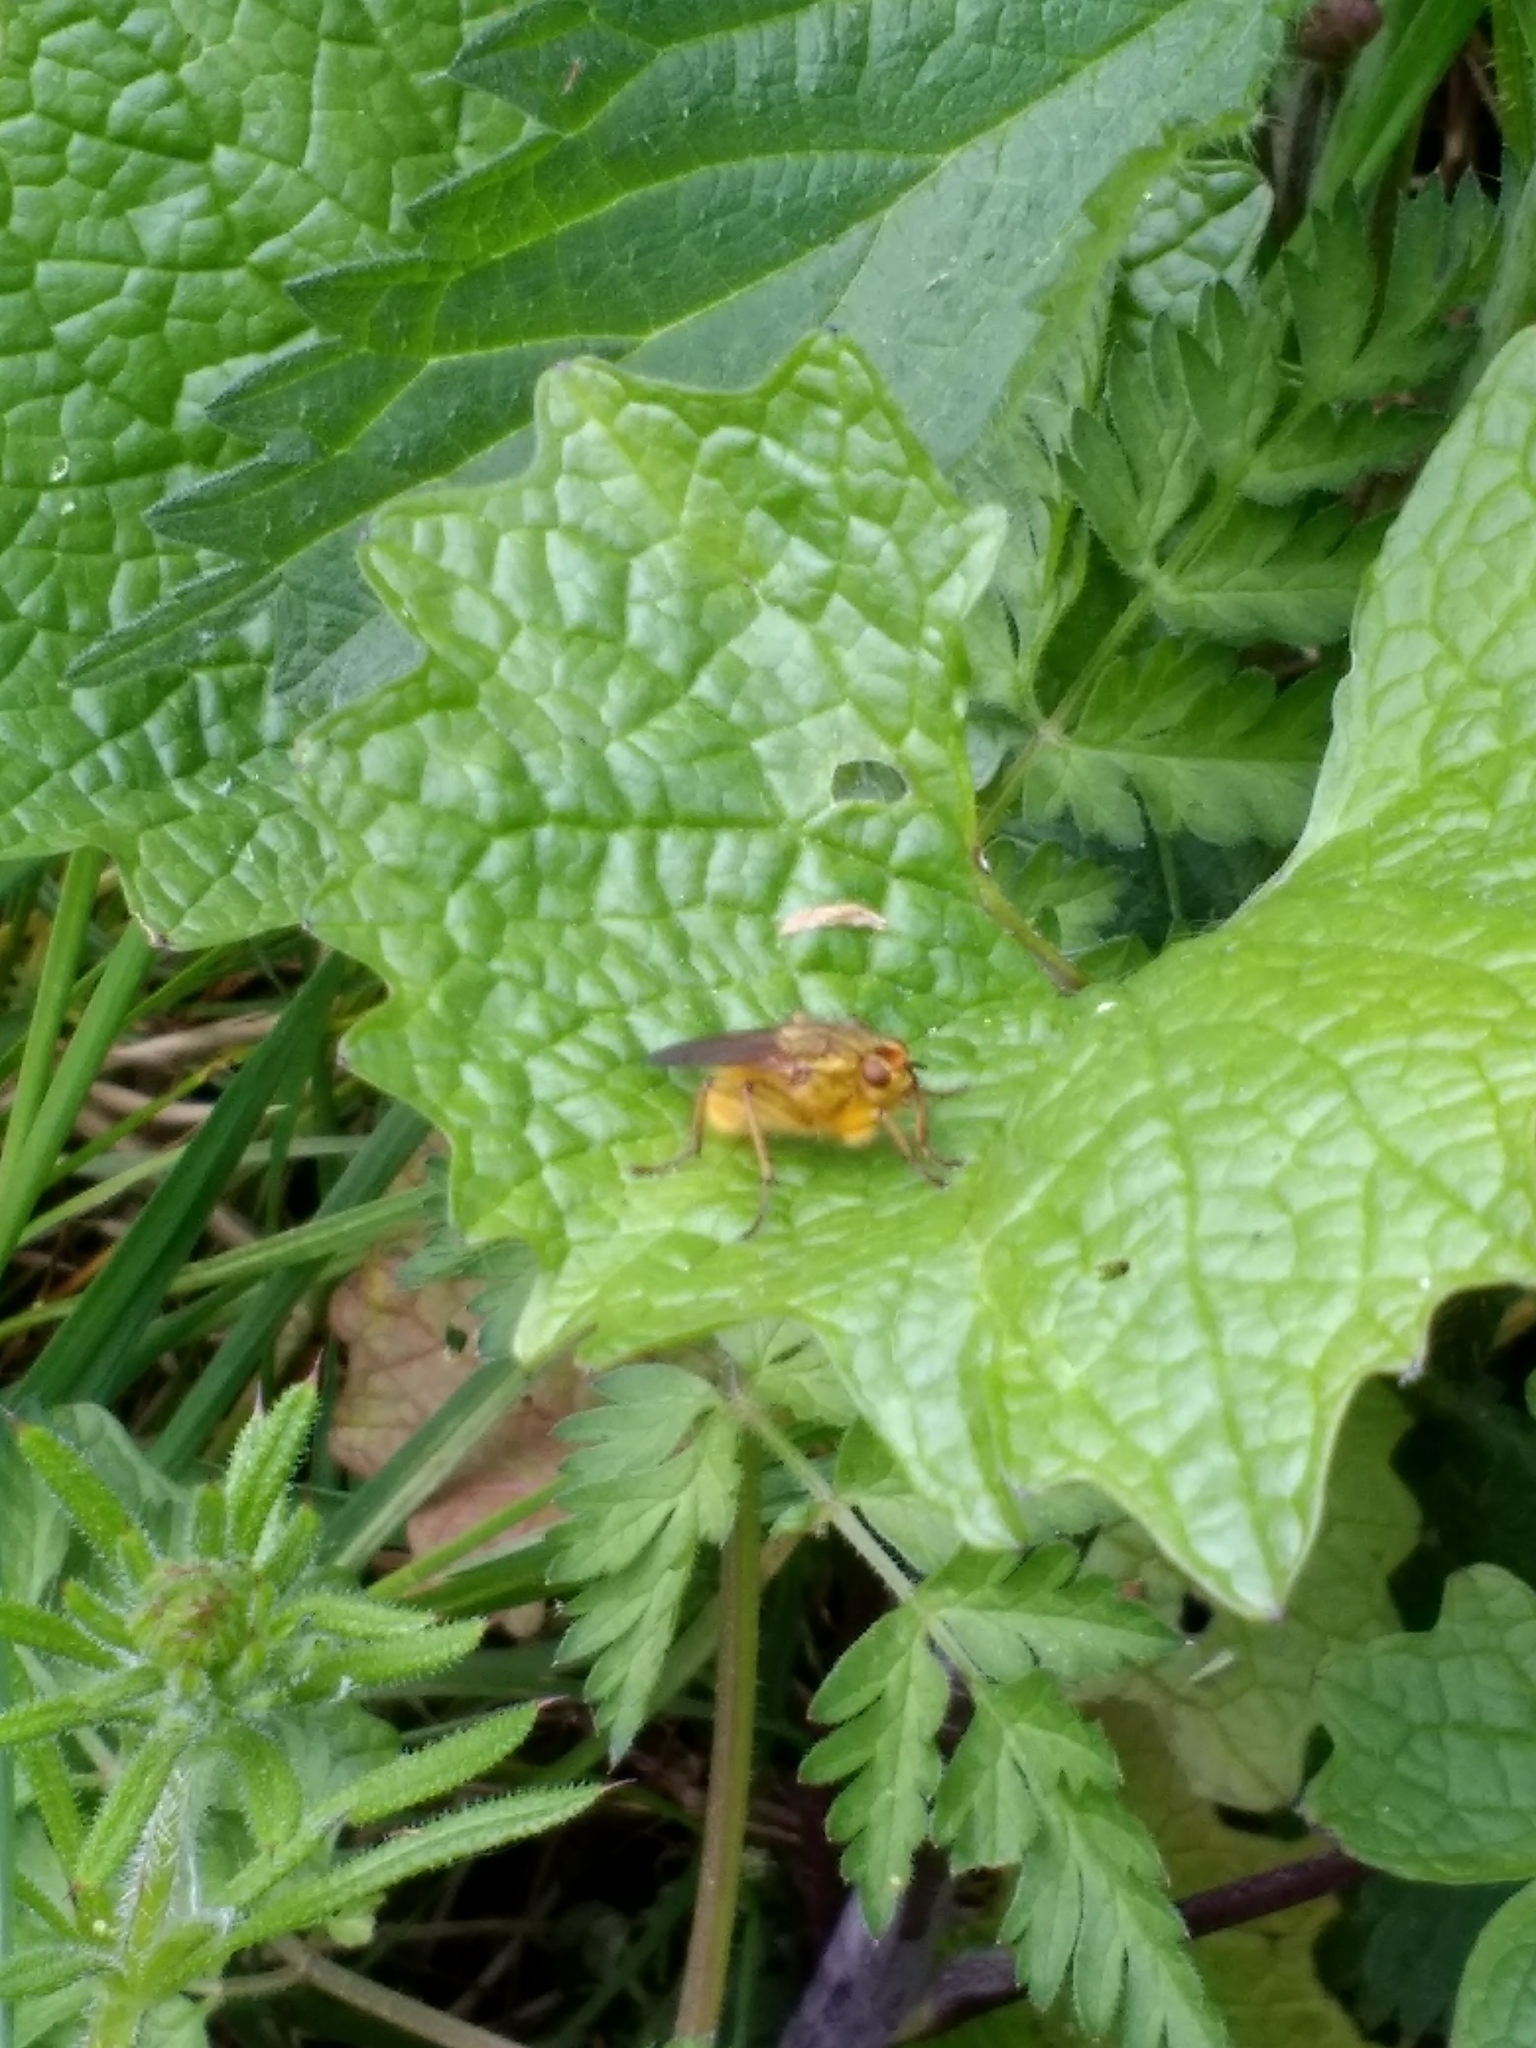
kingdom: Animalia
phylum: Arthropoda
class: Insecta
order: Diptera
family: Scathophagidae
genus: Scathophaga
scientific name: Scathophaga stercoraria
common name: Yellow dung fly
